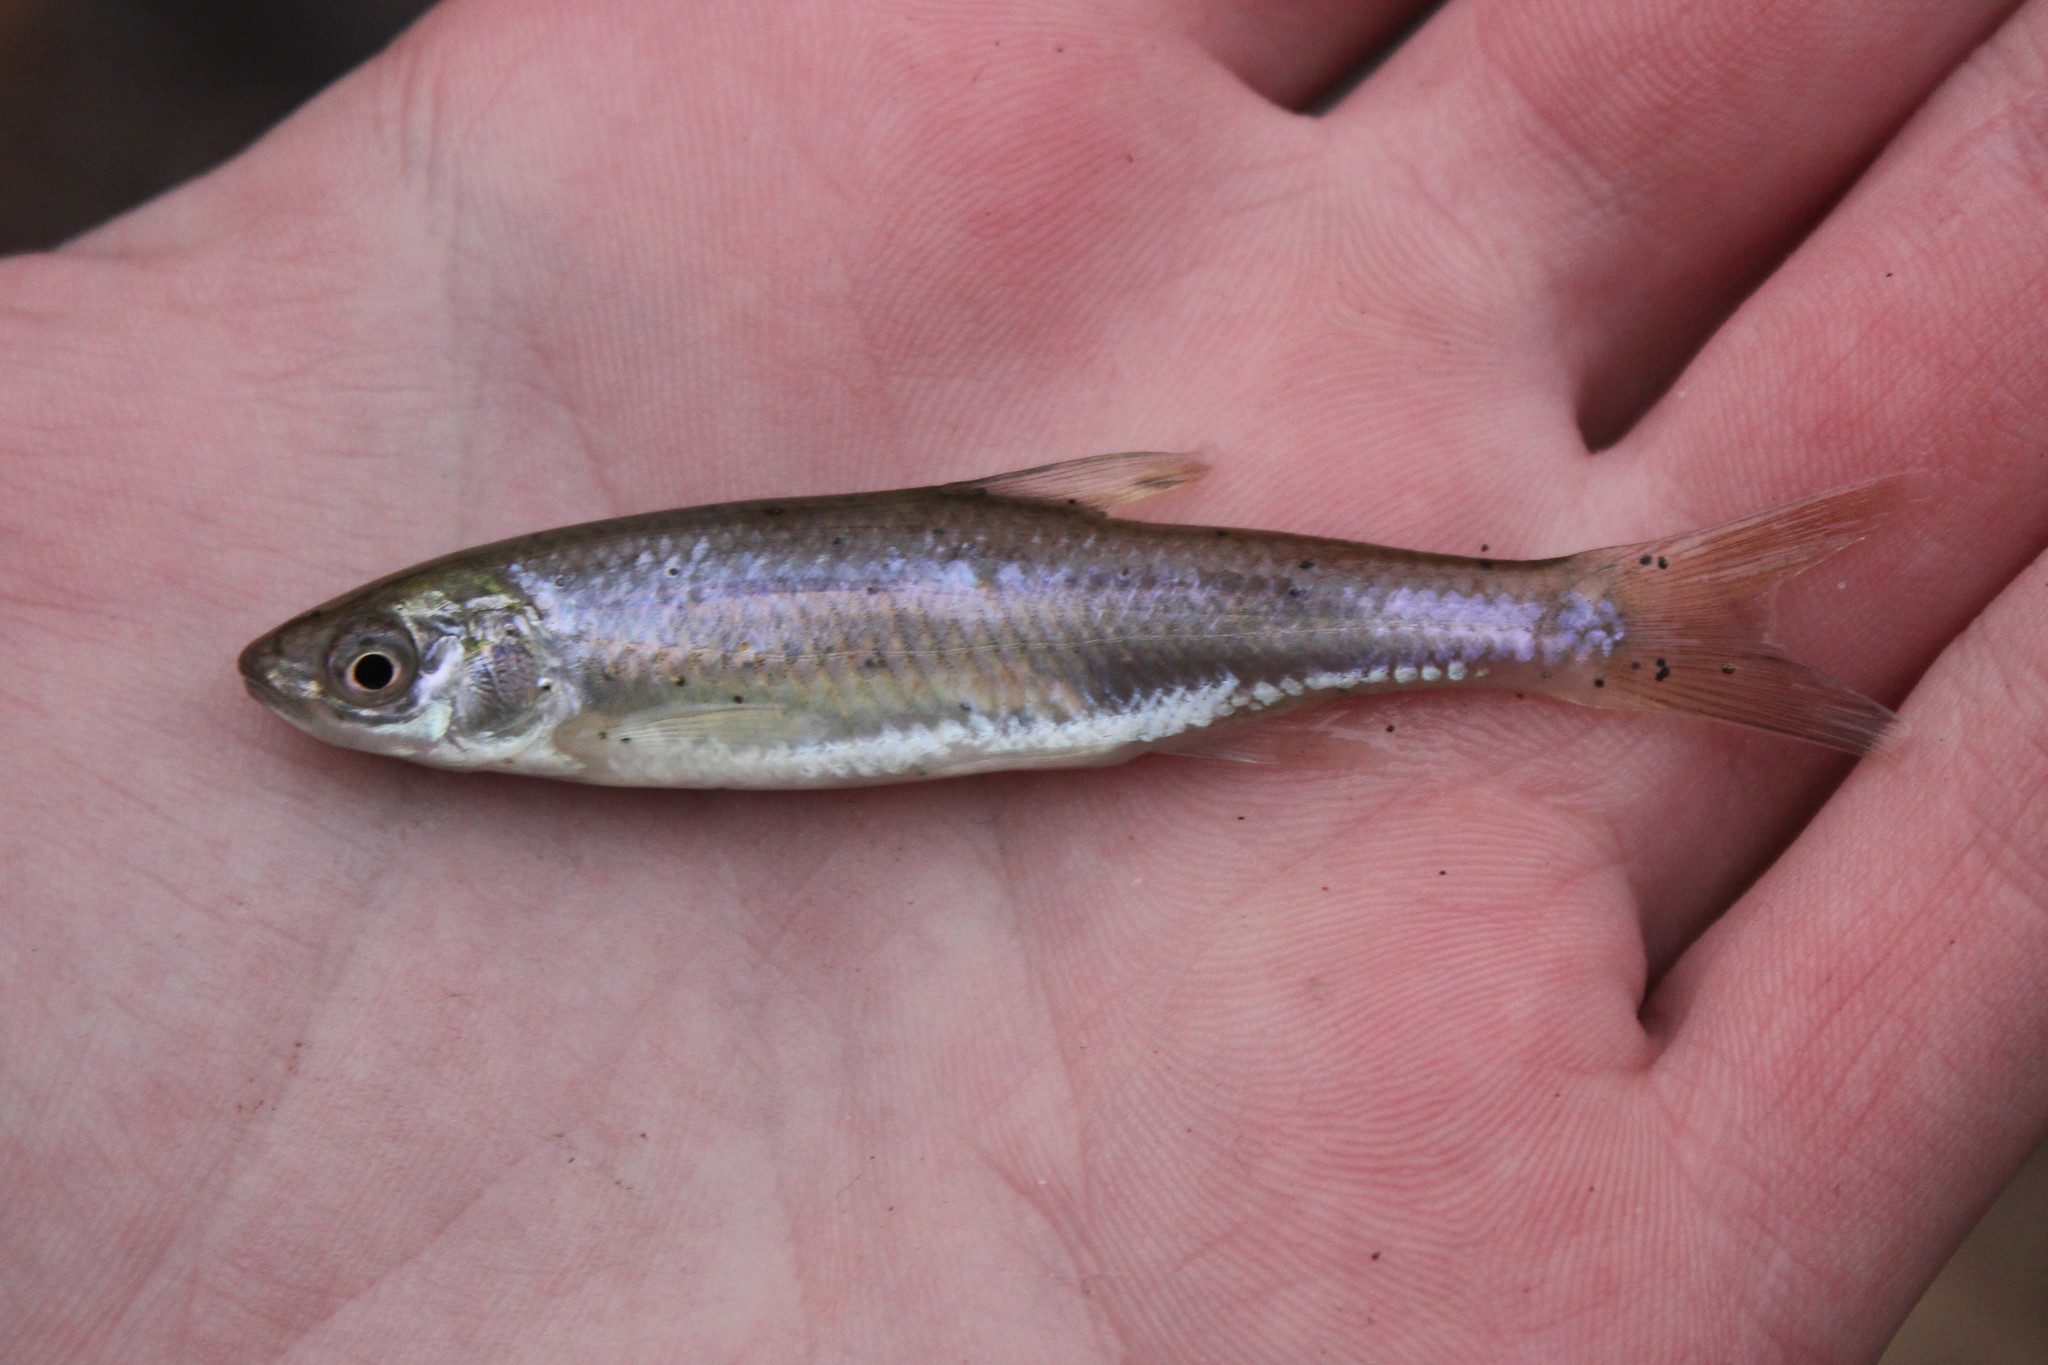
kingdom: Animalia
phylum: Chordata
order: Cypriniformes
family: Cyprinidae
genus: Cyprinella
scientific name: Cyprinella spiloptera
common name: Spotfin shiner
